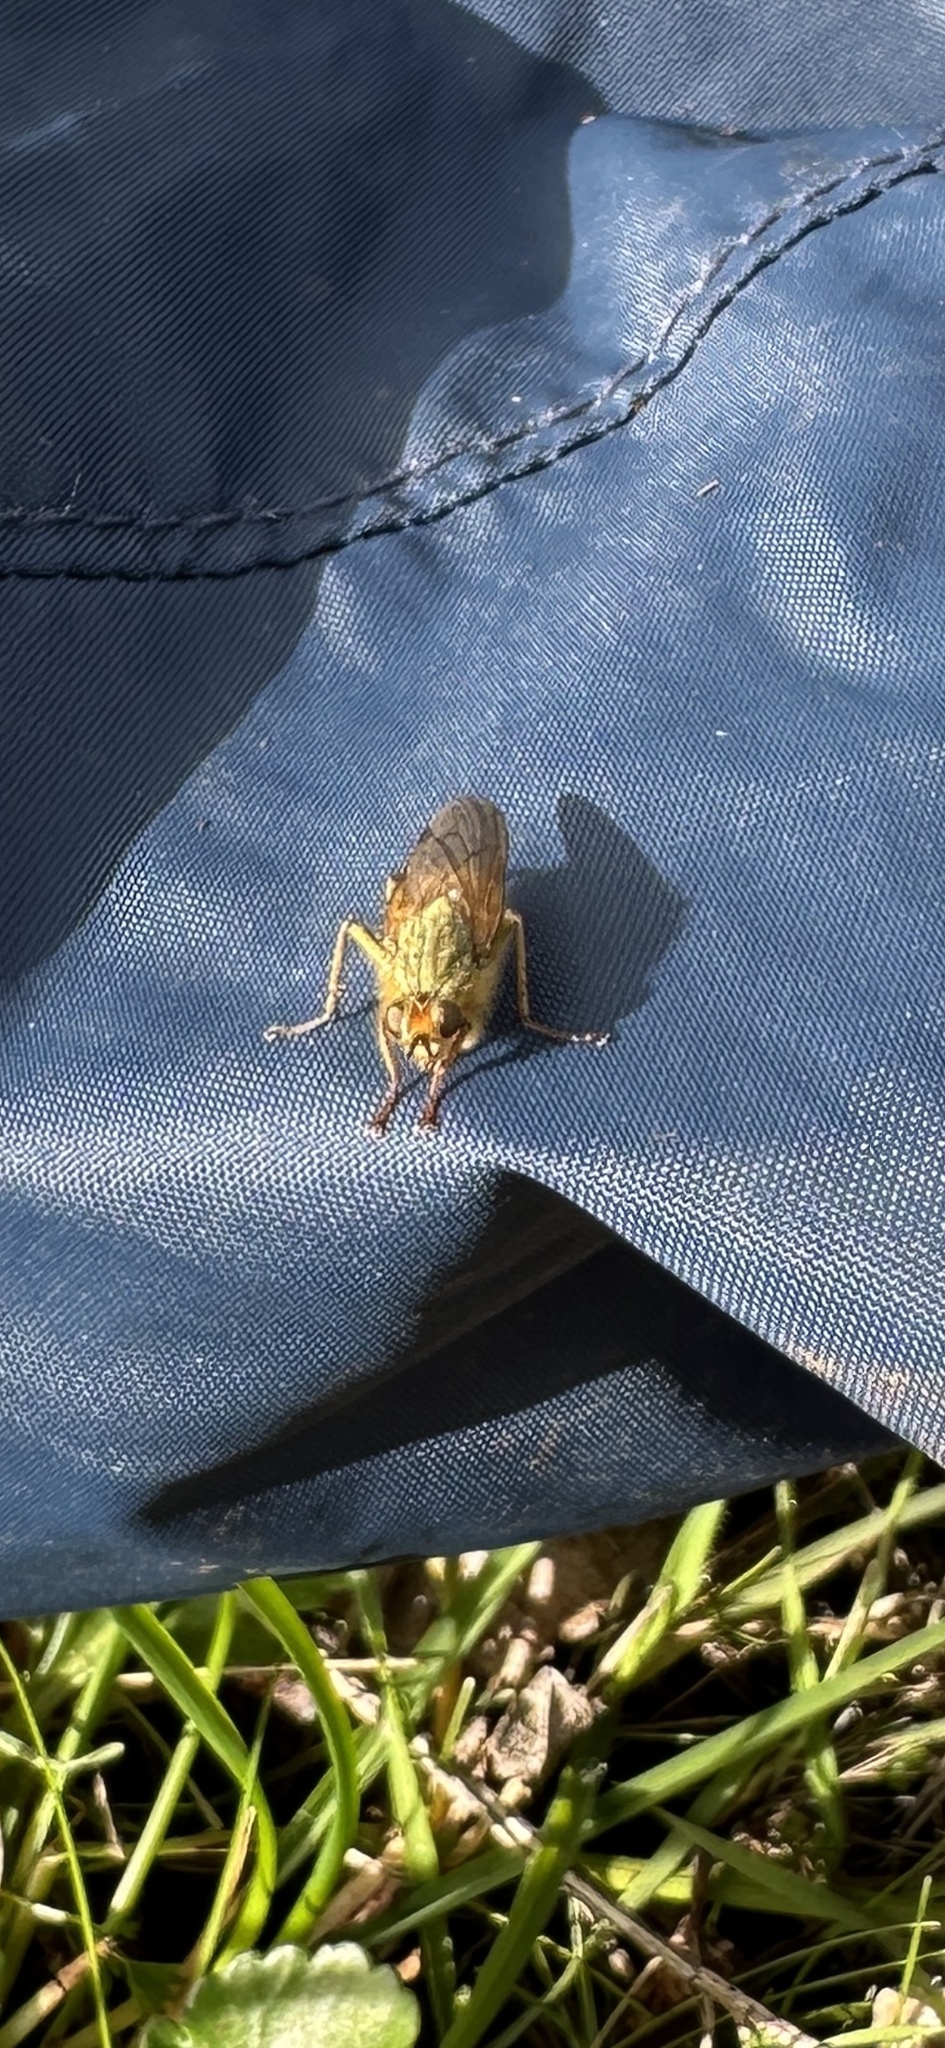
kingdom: Animalia
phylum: Arthropoda
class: Insecta
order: Diptera
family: Scathophagidae
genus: Scathophaga
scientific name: Scathophaga stercoraria
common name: Yellow dung fly
